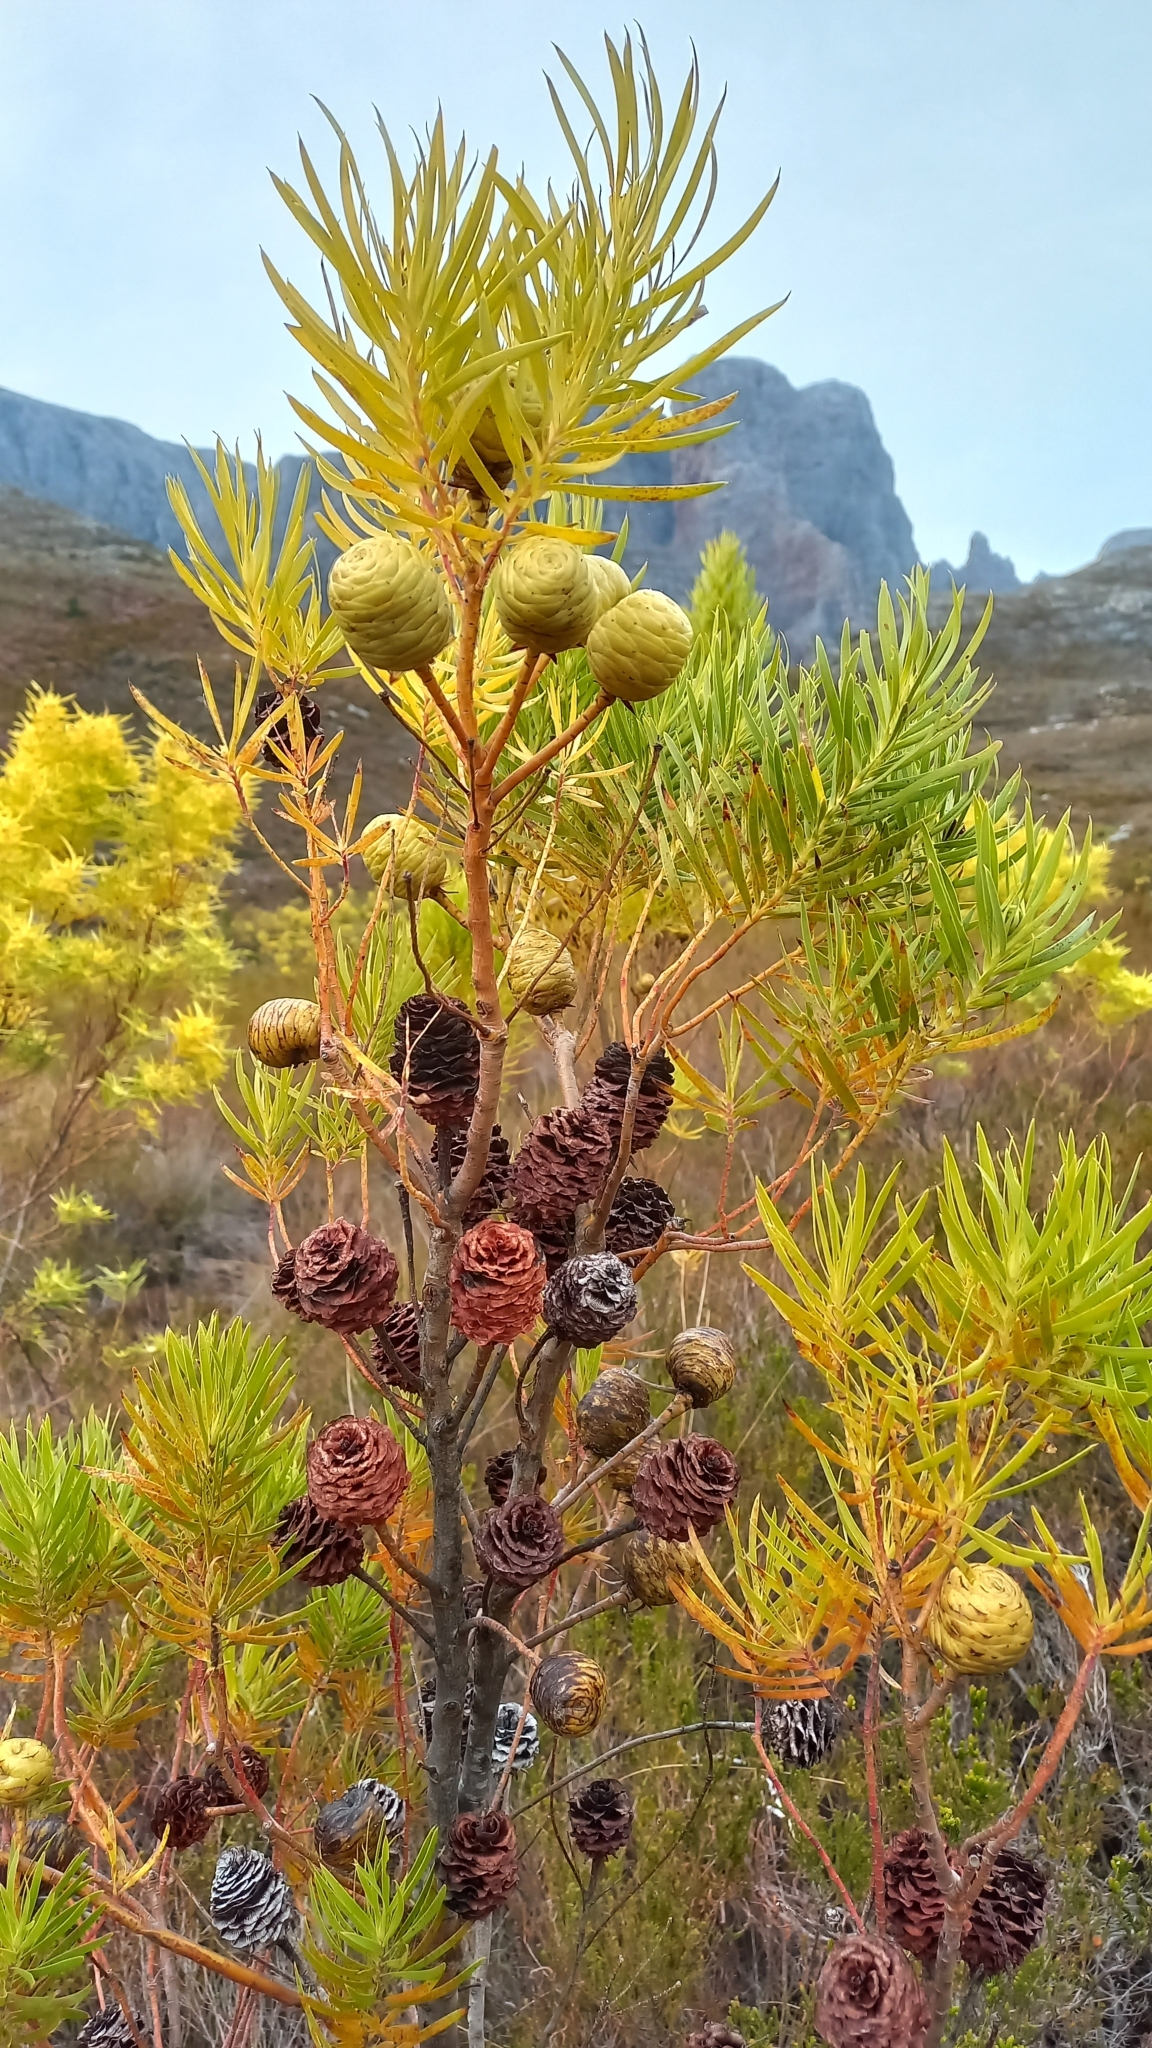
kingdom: Plantae
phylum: Tracheophyta
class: Magnoliopsida
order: Proteales
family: Proteaceae
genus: Leucadendron
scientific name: Leucadendron salicifolium
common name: Common stream conebush
